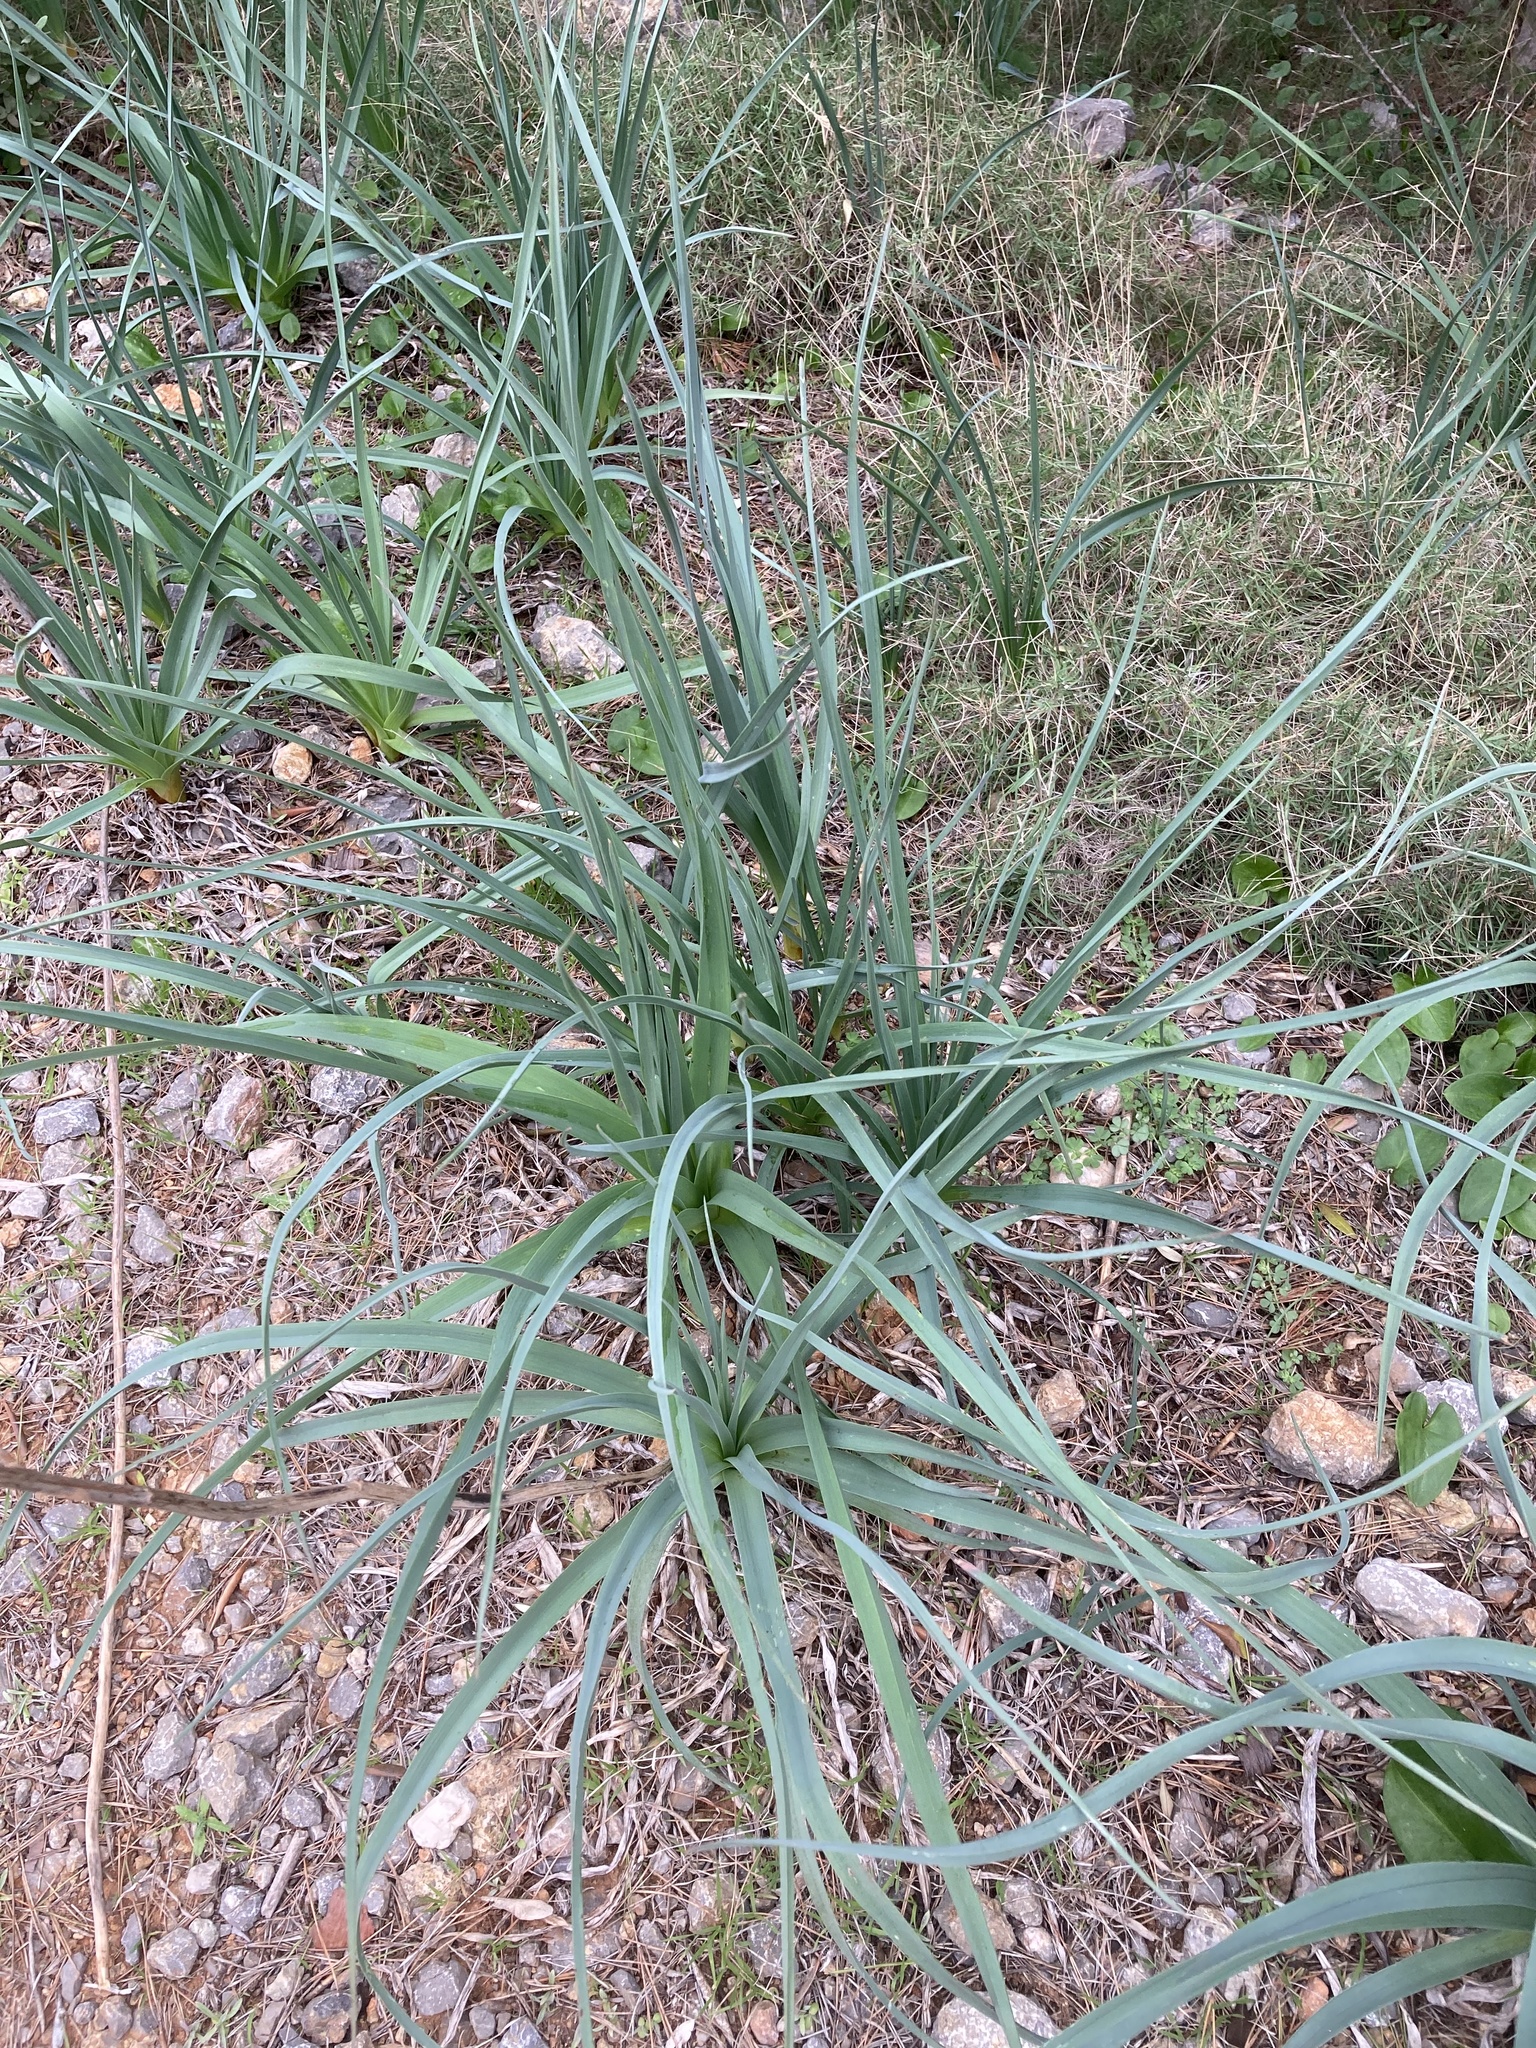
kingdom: Plantae
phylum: Tracheophyta
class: Liliopsida
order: Asparagales
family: Asphodelaceae
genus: Asphodelus
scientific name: Asphodelus ramosus
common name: Silverrod
